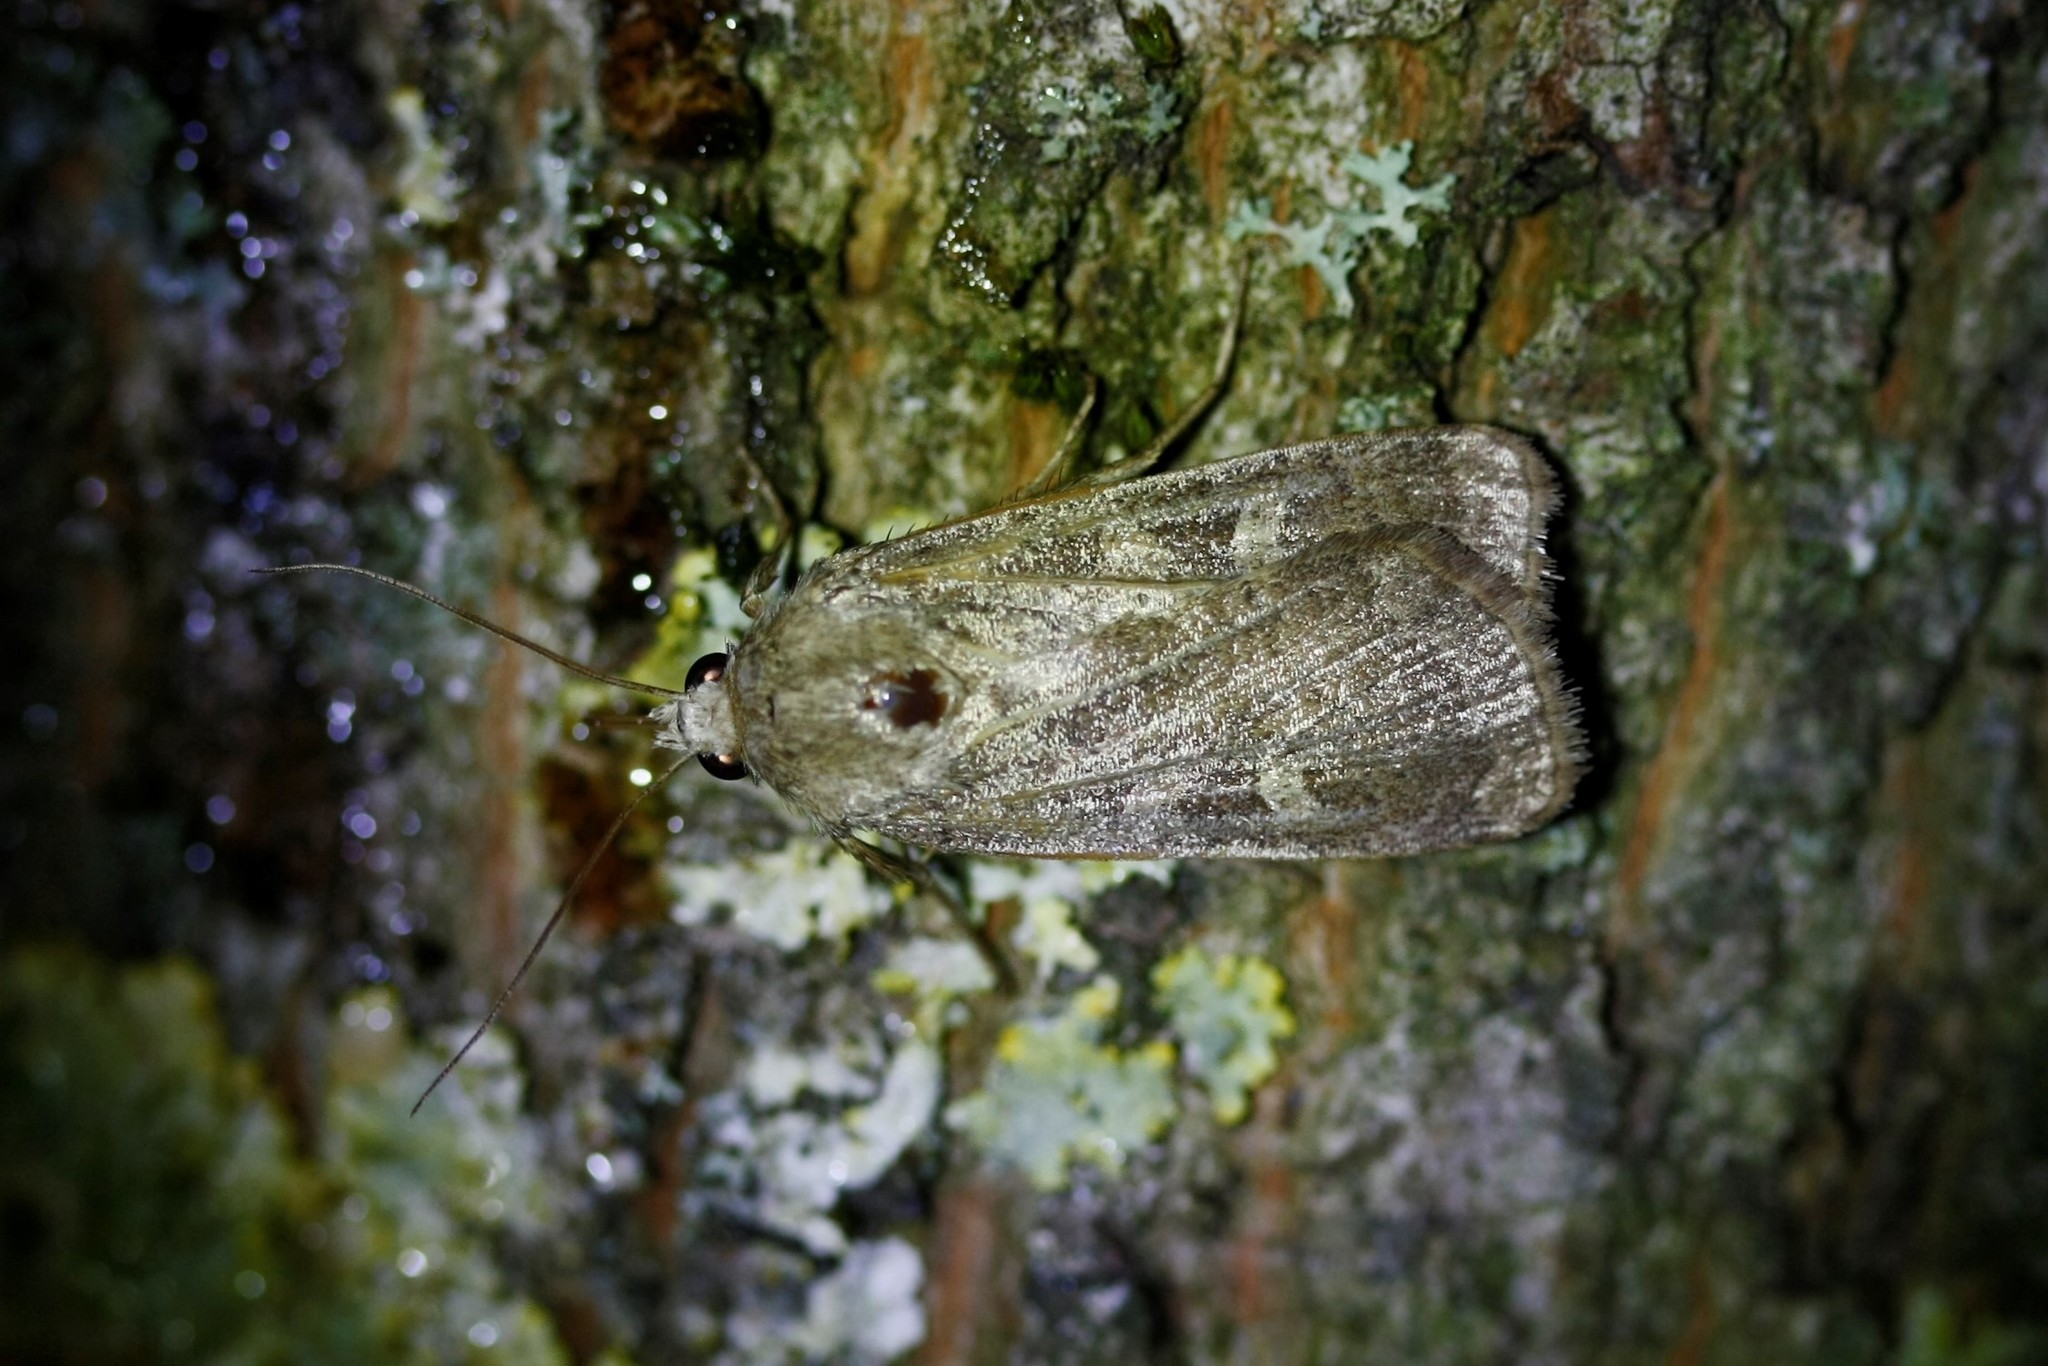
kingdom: Animalia
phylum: Arthropoda
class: Insecta
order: Lepidoptera
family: Noctuidae
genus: Xestia
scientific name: Xestia xanthographa
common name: Square-spot rustic
